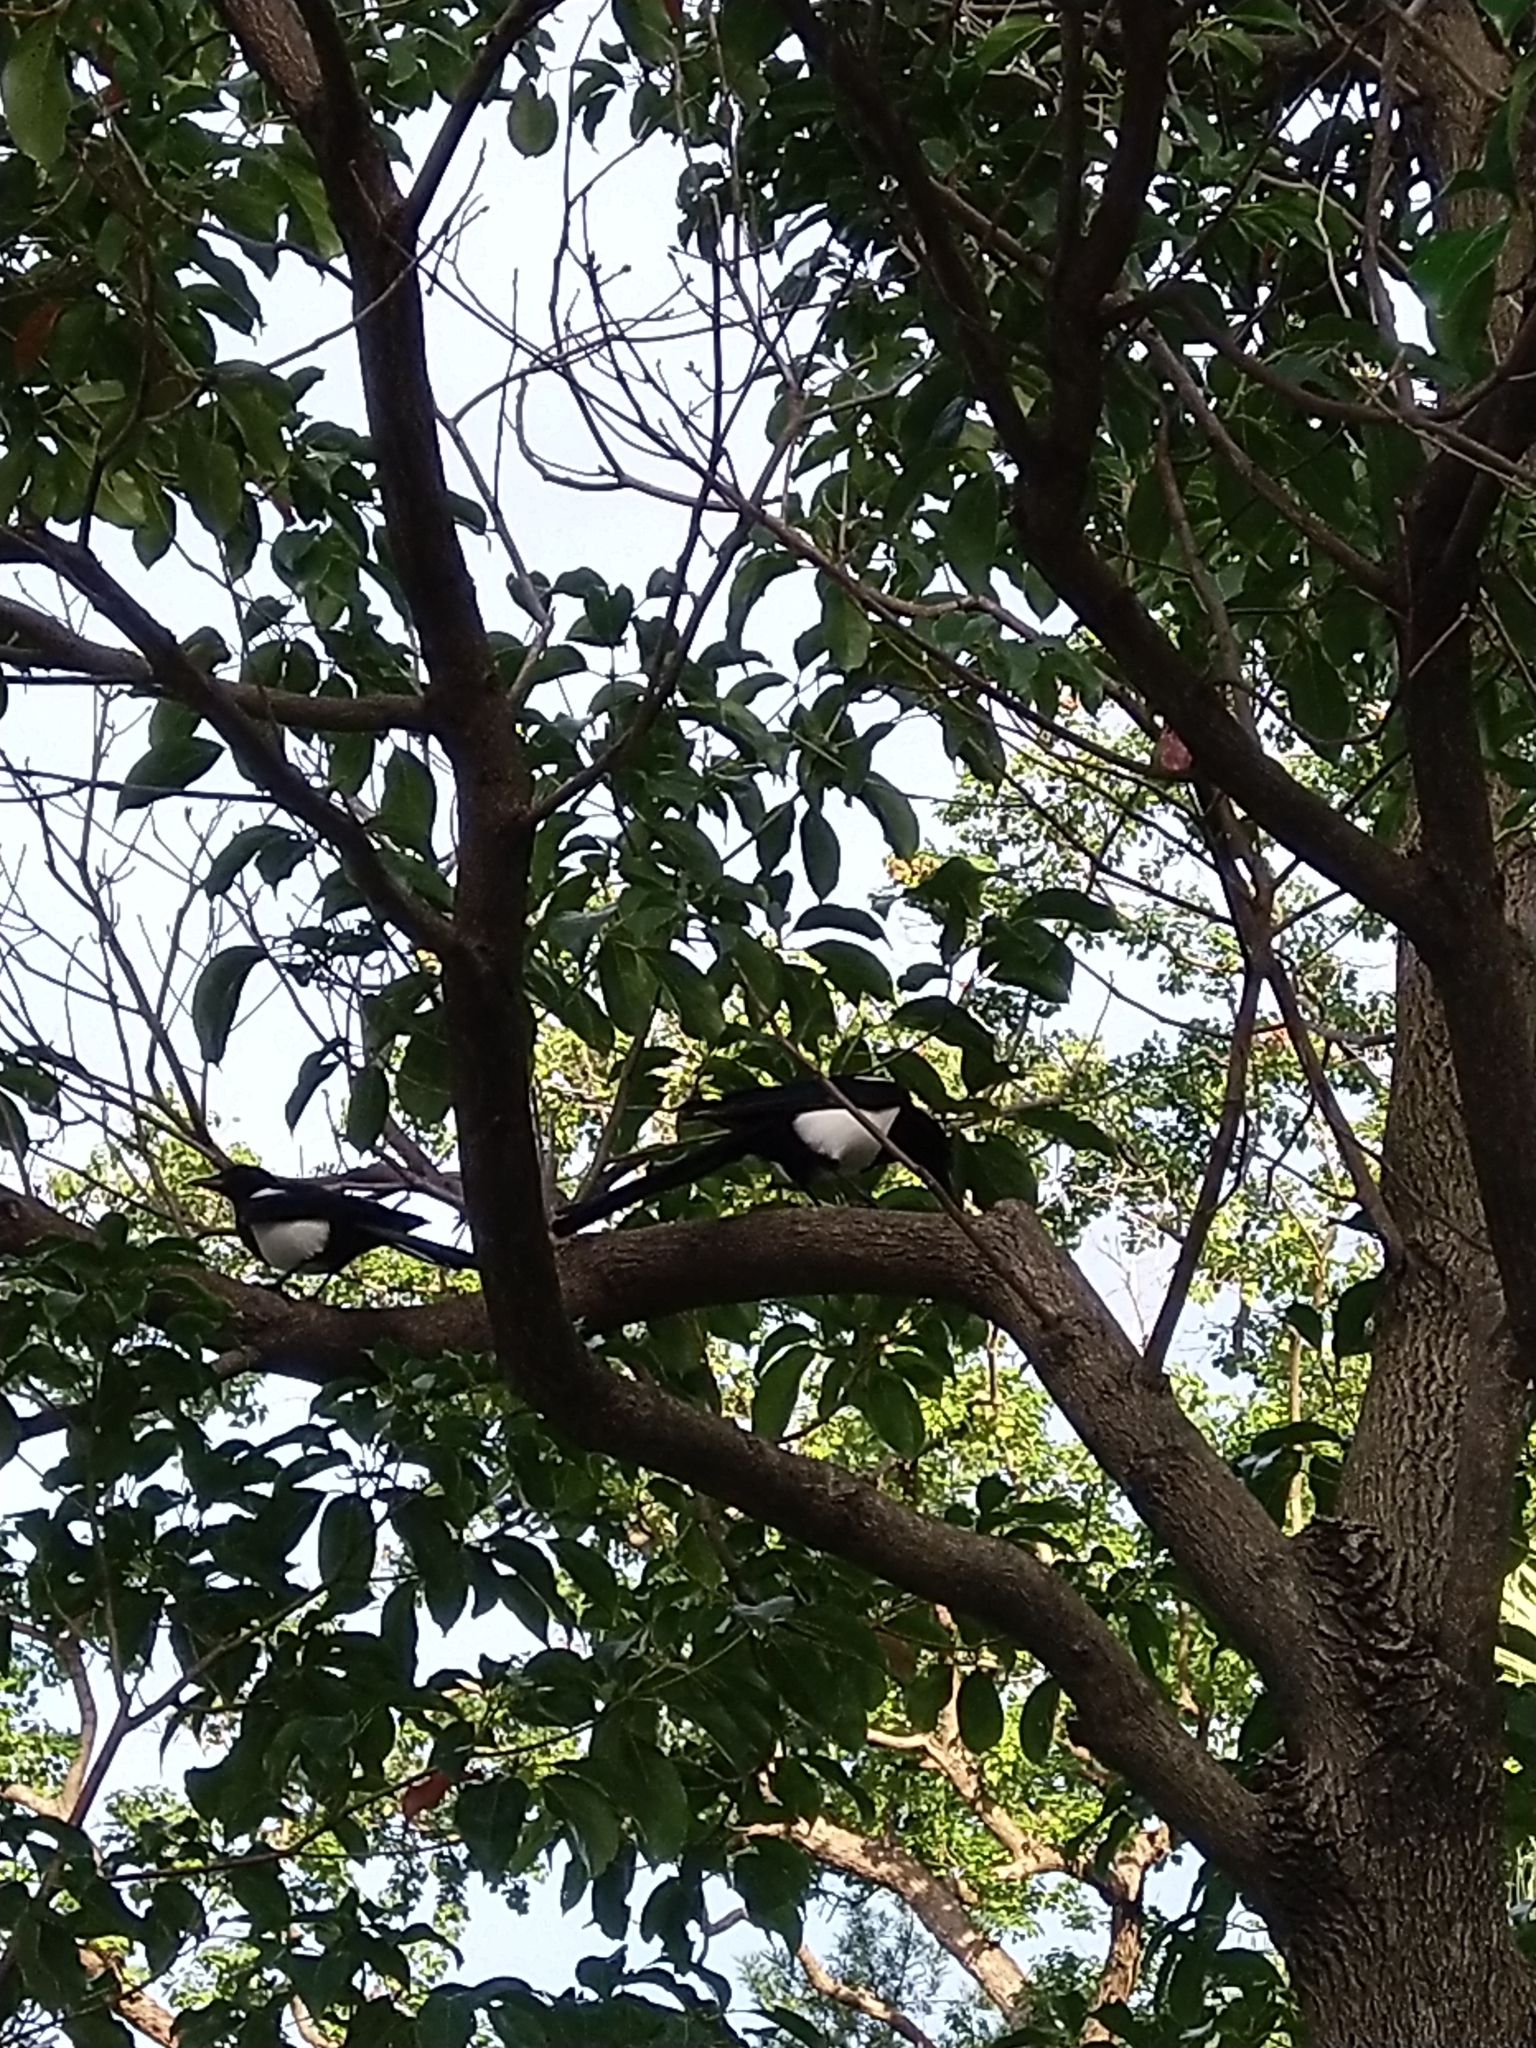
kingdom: Animalia
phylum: Chordata
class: Aves
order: Passeriformes
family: Corvidae
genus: Pica
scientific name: Pica serica
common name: Oriental magpie
